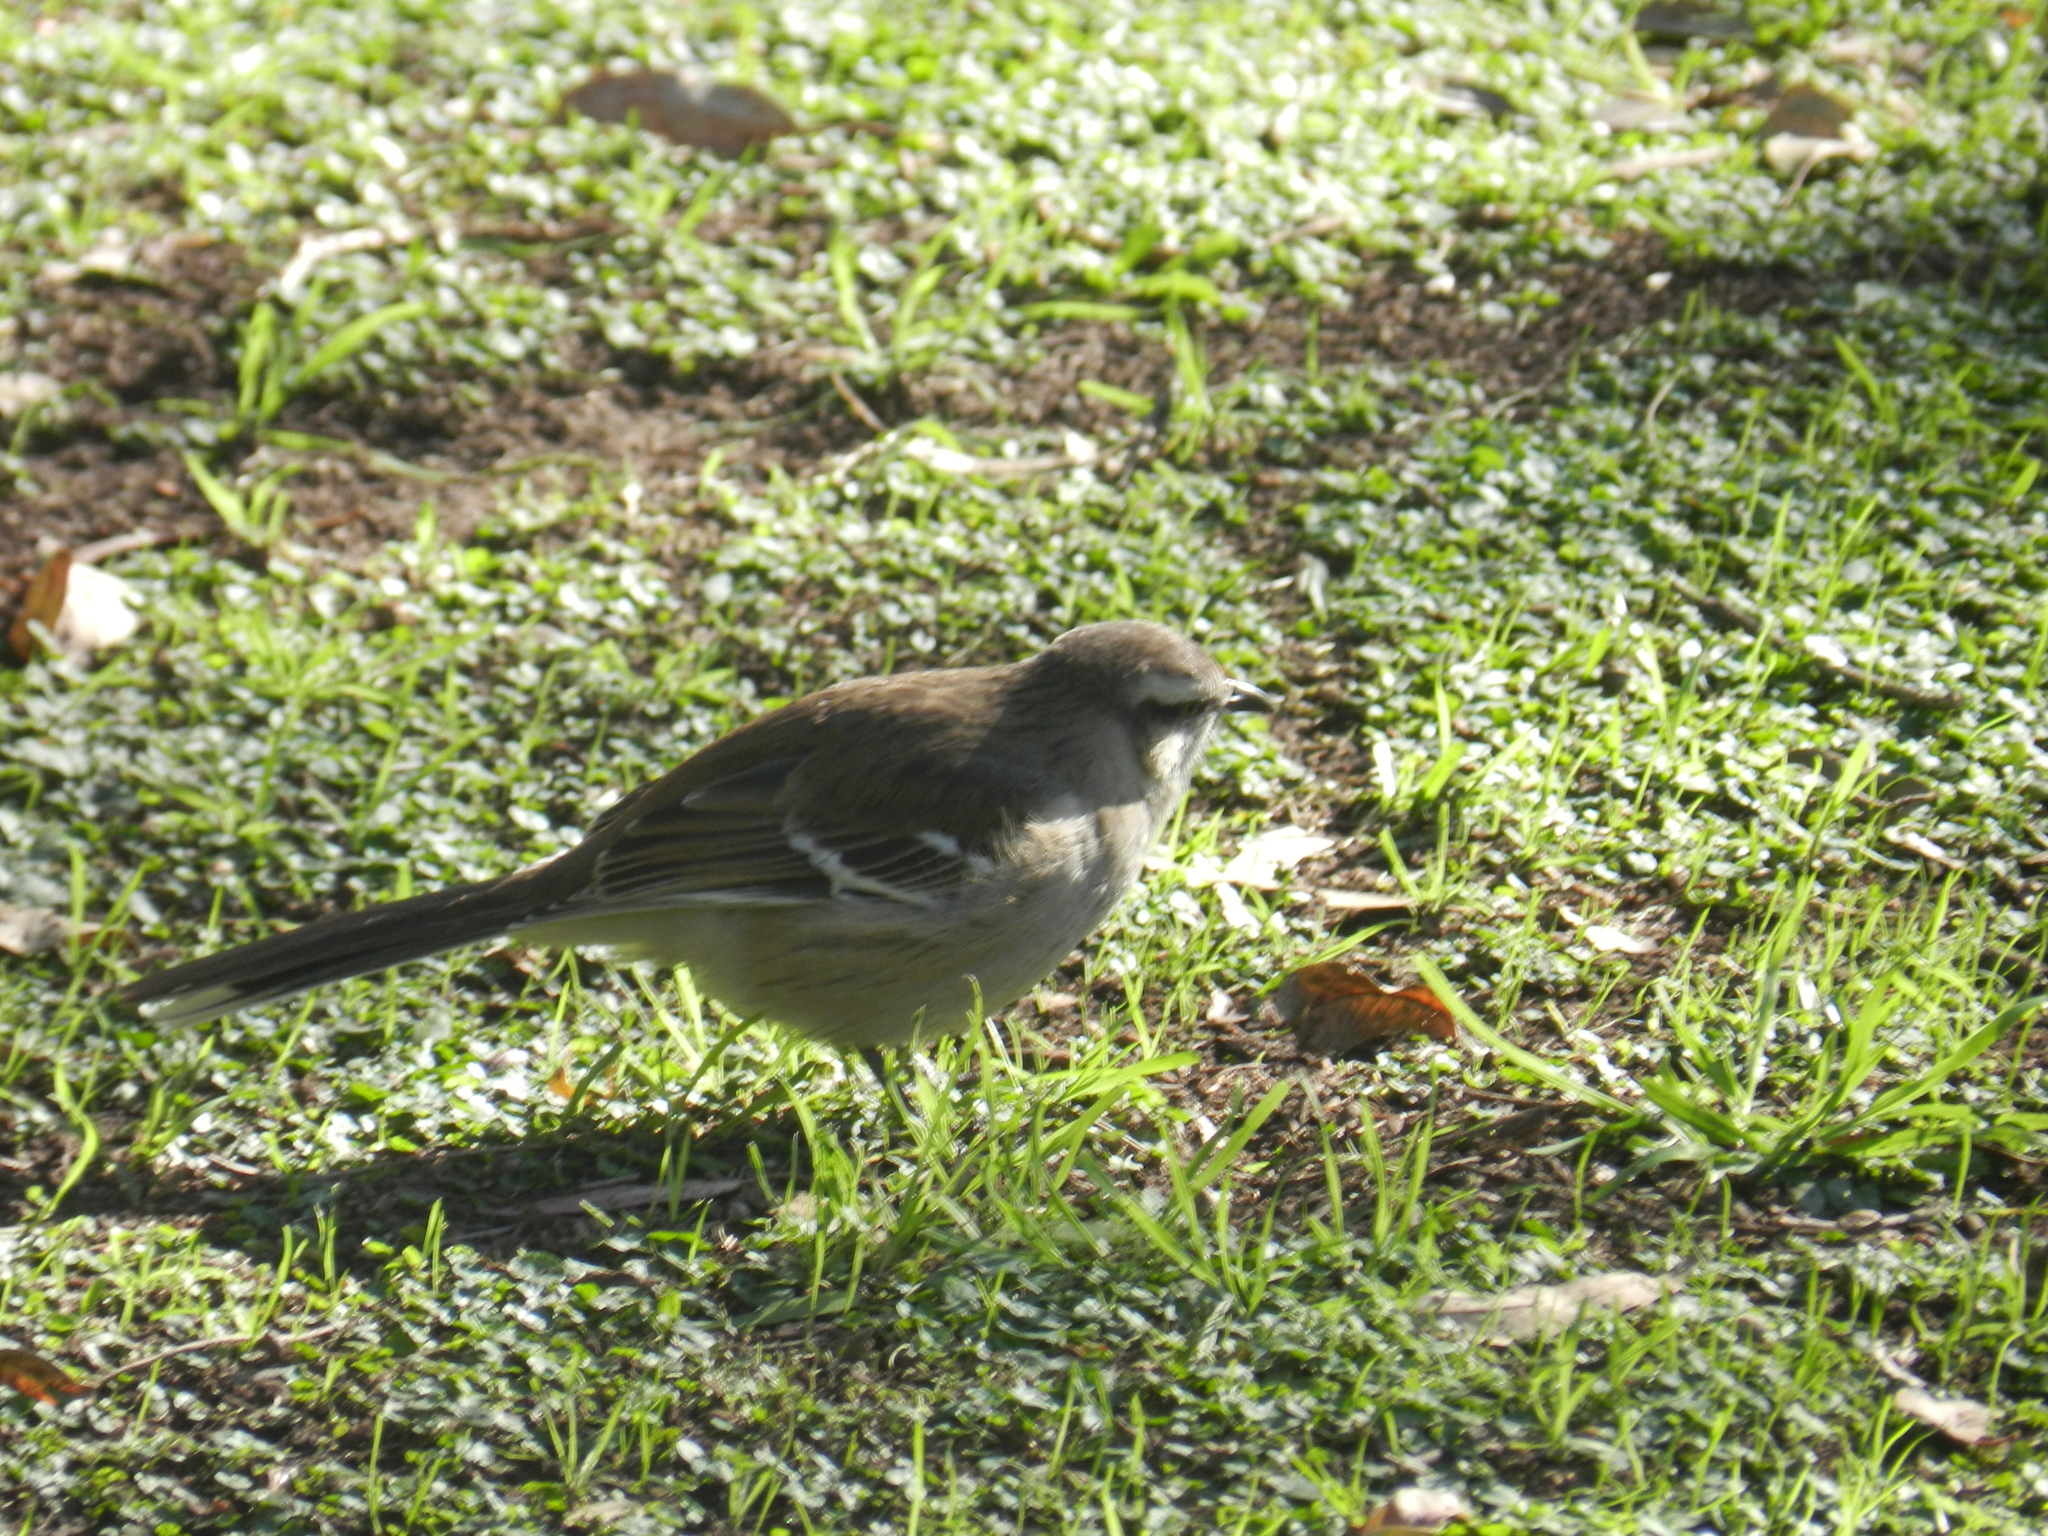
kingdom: Animalia
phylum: Chordata
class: Aves
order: Passeriformes
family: Mimidae
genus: Mimus
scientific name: Mimus saturninus
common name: Chalk-browed mockingbird
